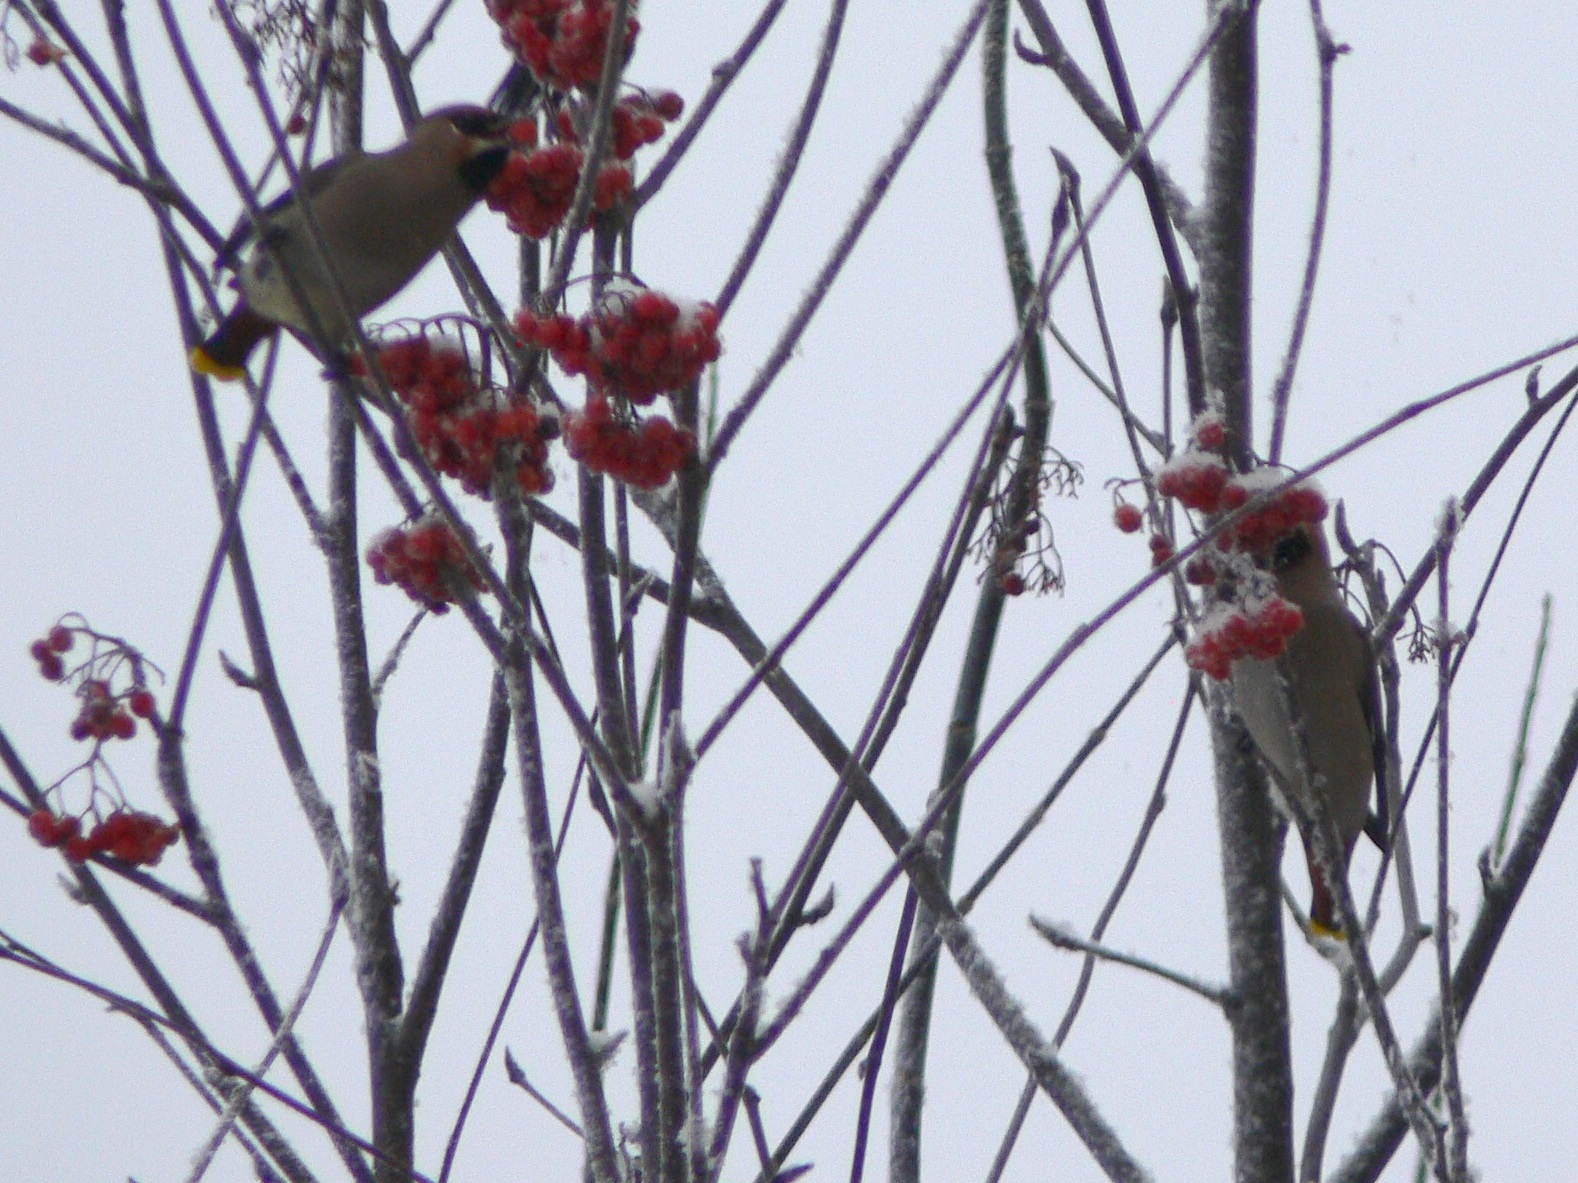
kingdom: Animalia
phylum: Chordata
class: Aves
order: Passeriformes
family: Bombycillidae
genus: Bombycilla
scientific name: Bombycilla garrulus
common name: Bohemian waxwing
